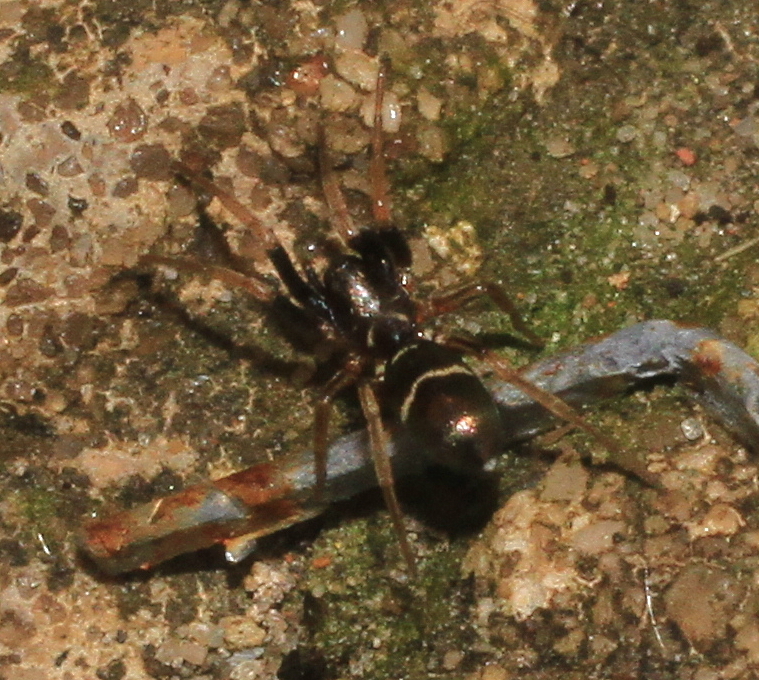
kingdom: Animalia
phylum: Arthropoda
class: Arachnida
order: Araneae
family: Gnaphosidae
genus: Micaria
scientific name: Micaria micans
